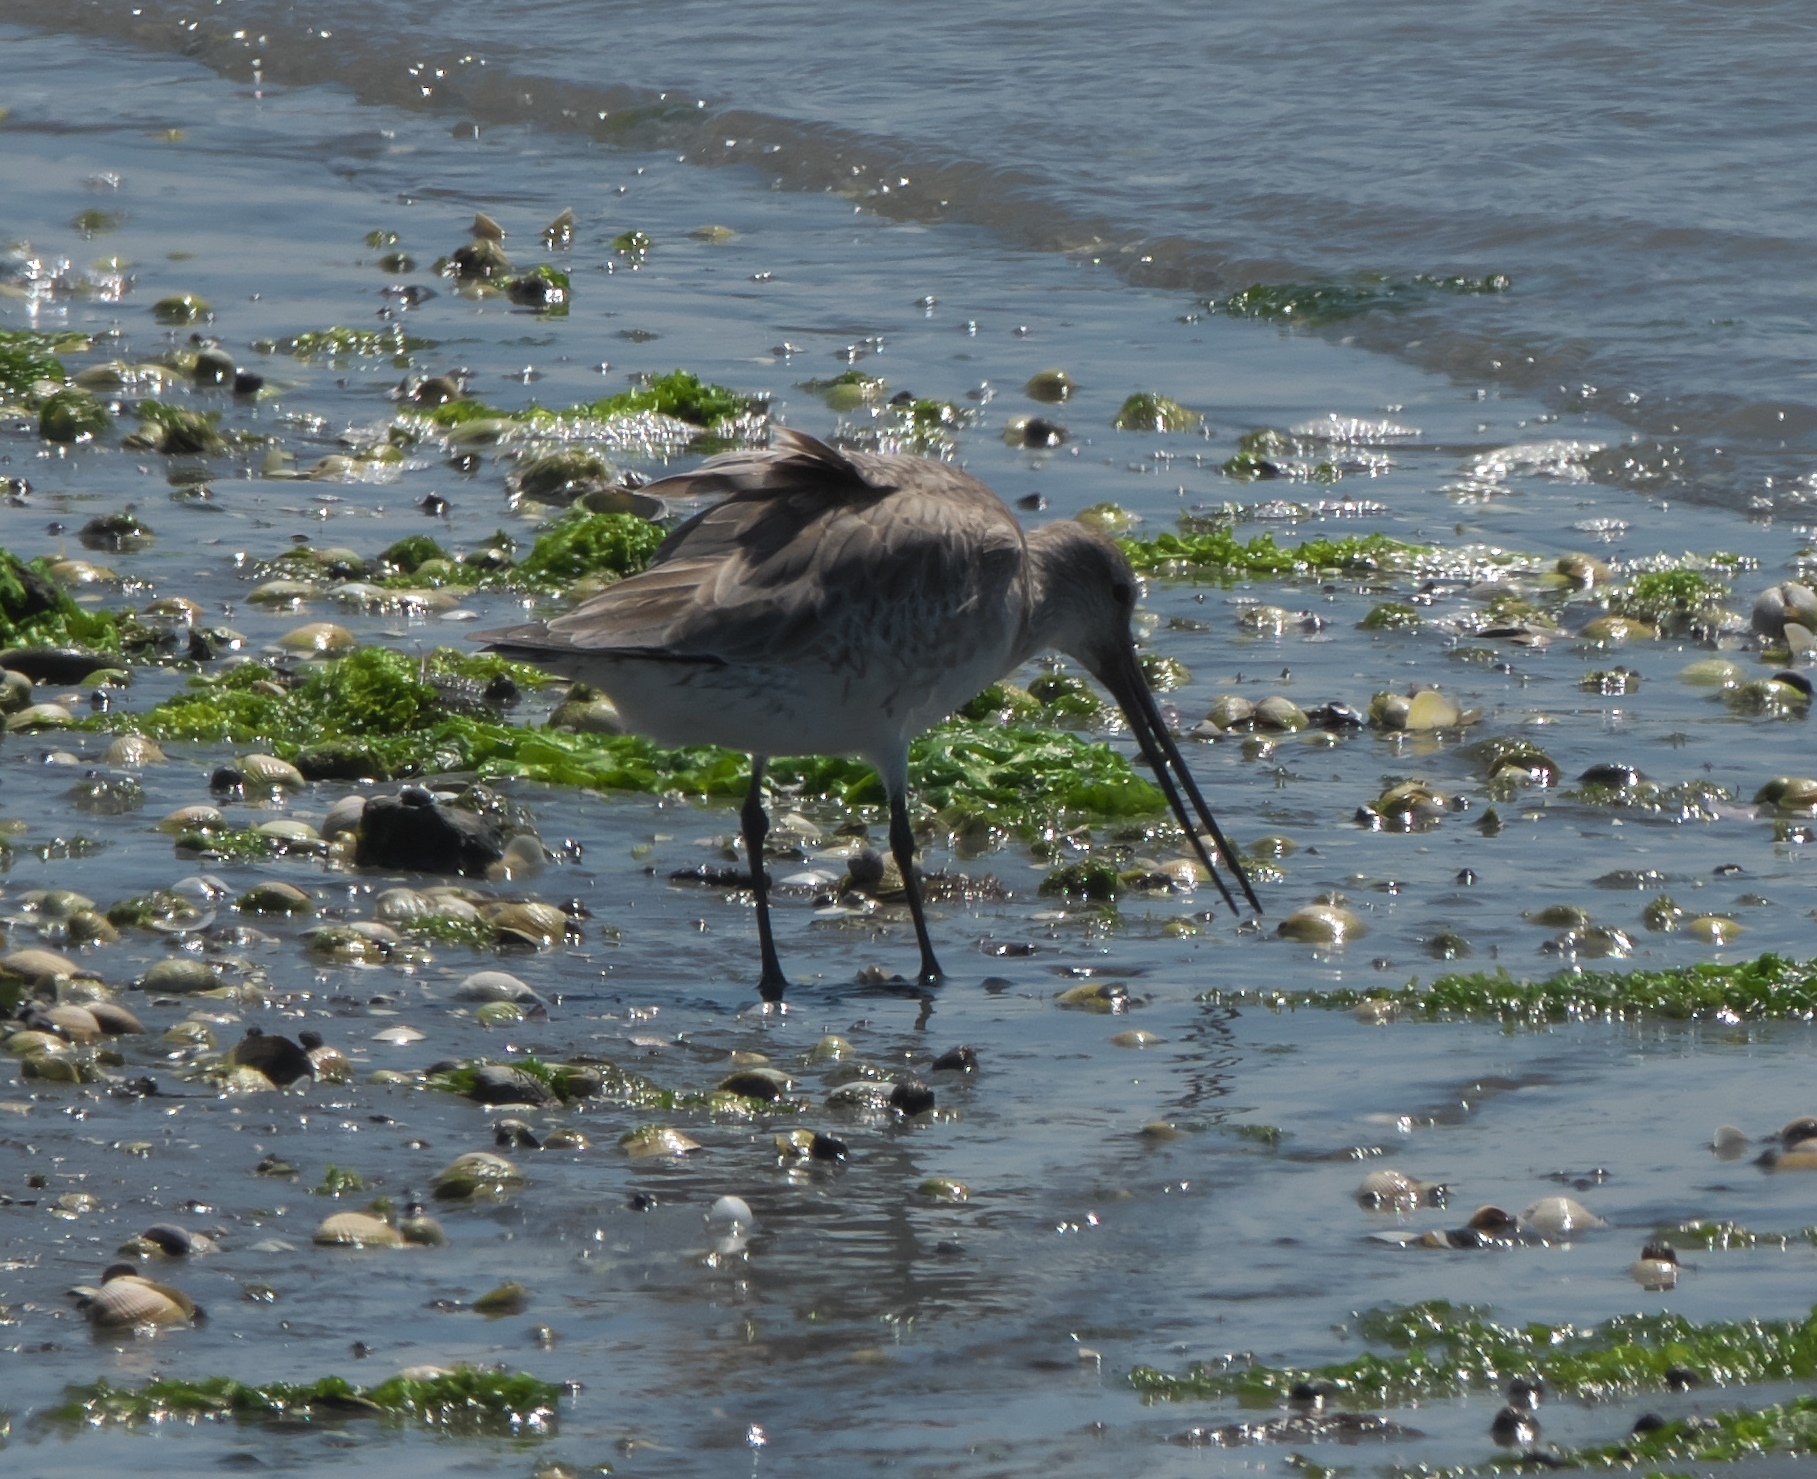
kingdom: Animalia
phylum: Chordata
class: Aves
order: Charadriiformes
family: Scolopacidae
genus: Limosa
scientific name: Limosa lapponica
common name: Bar-tailed godwit
